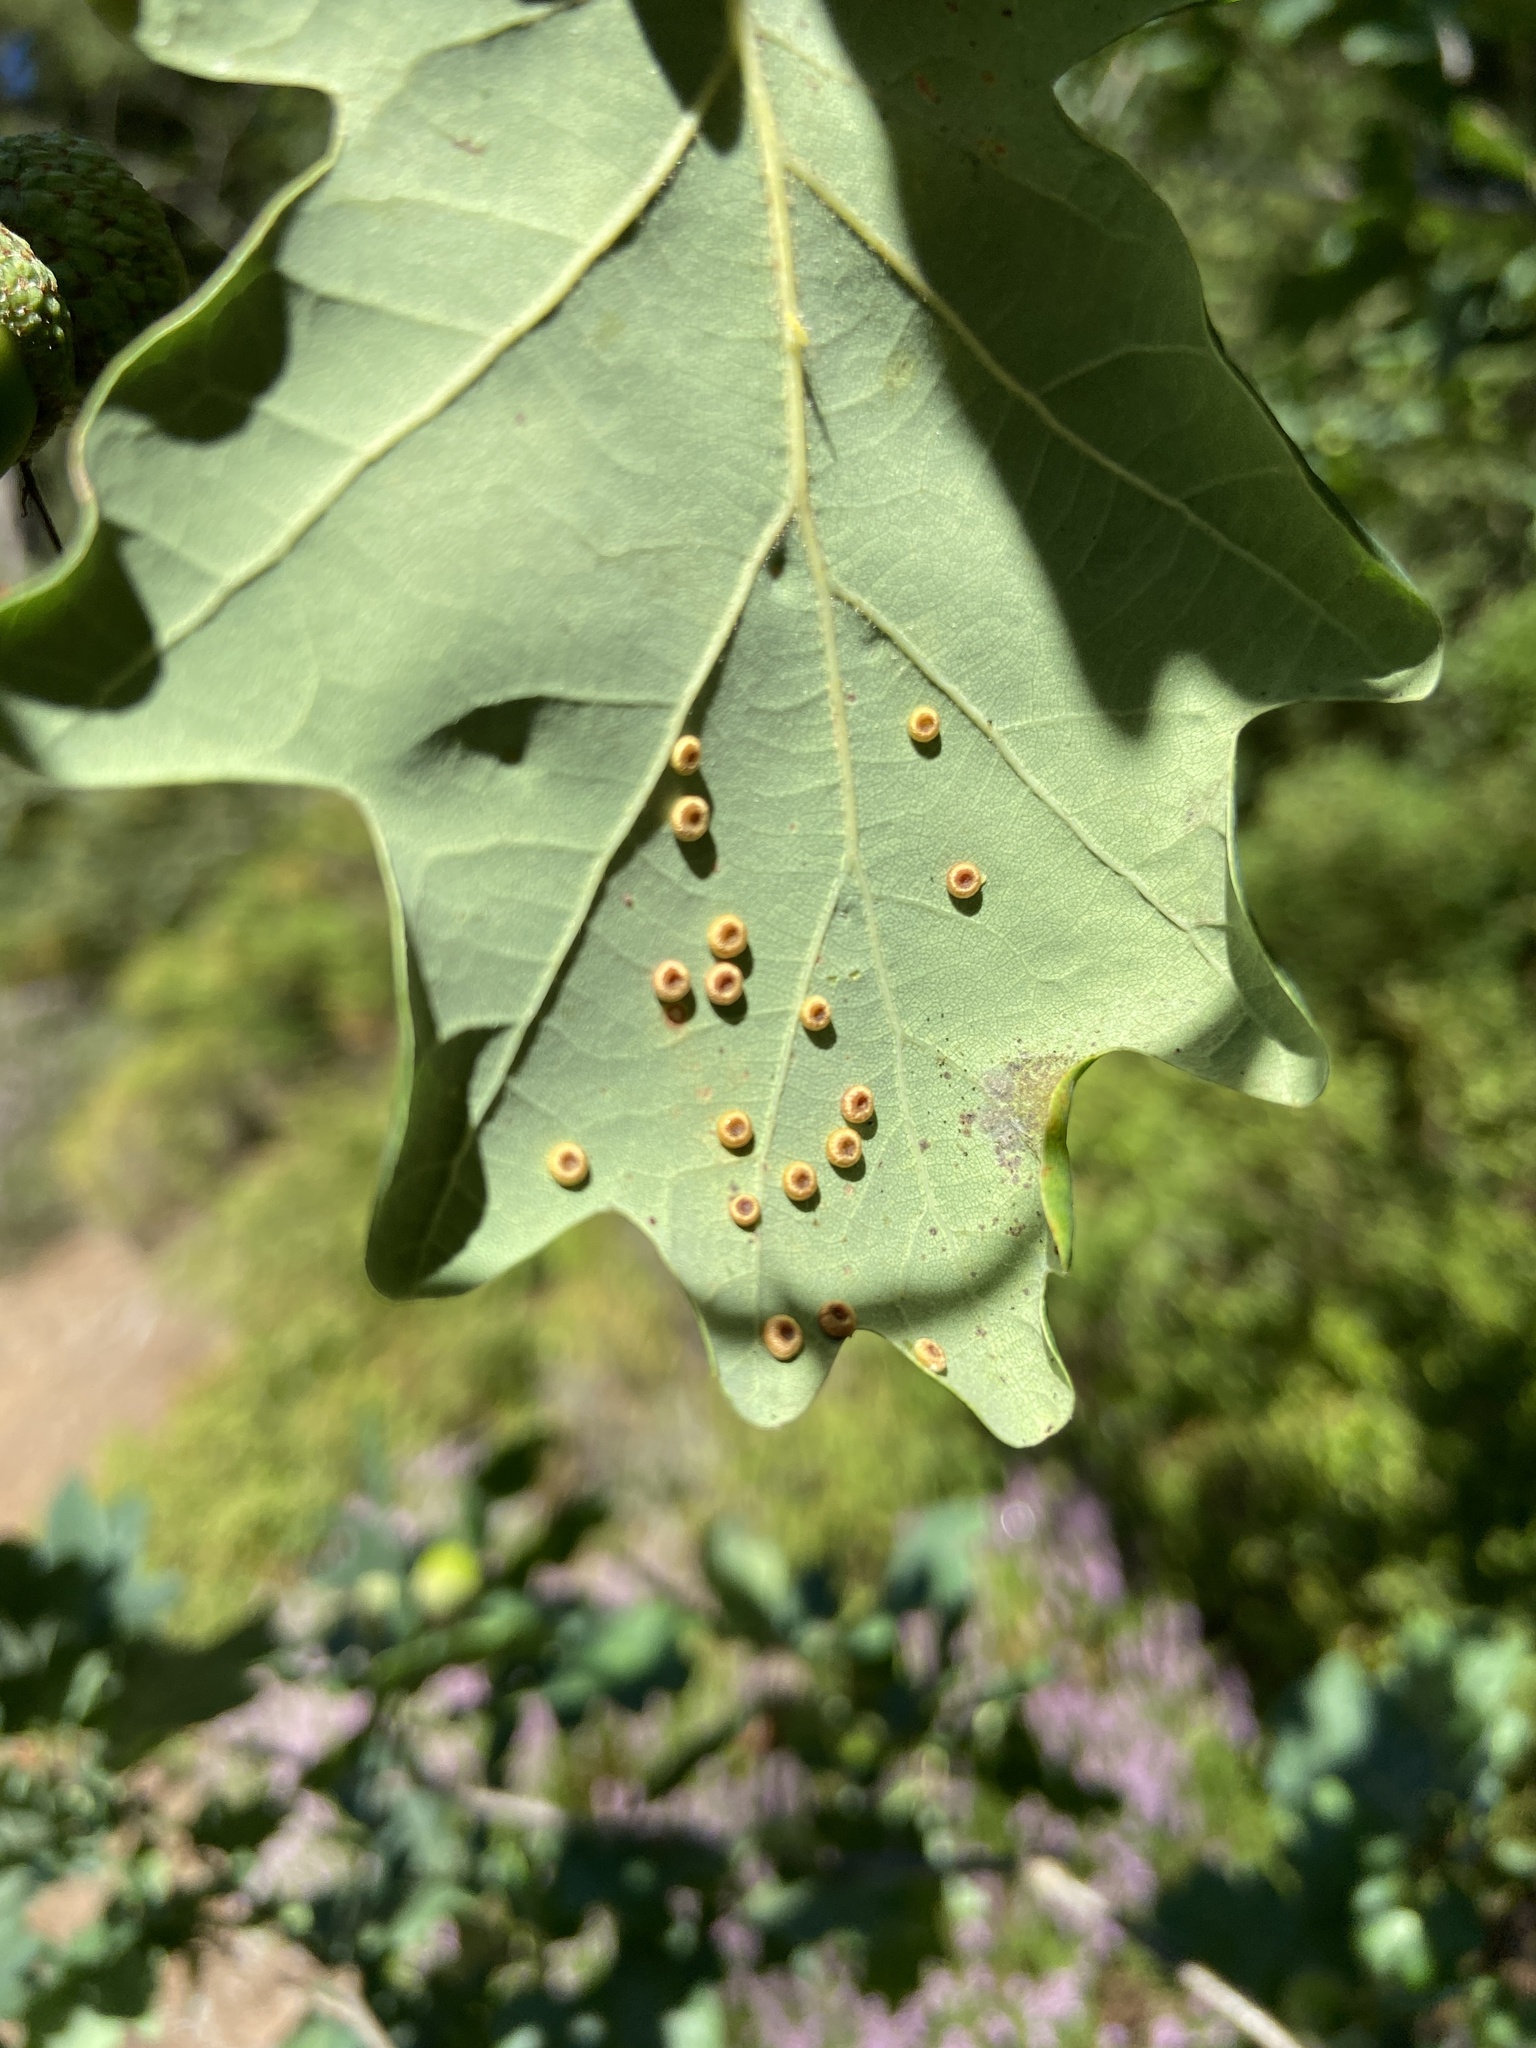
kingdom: Animalia
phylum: Arthropoda
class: Insecta
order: Hymenoptera
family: Cynipidae
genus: Neuroterus
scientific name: Neuroterus numismalis
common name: Silk-button spangle gall
